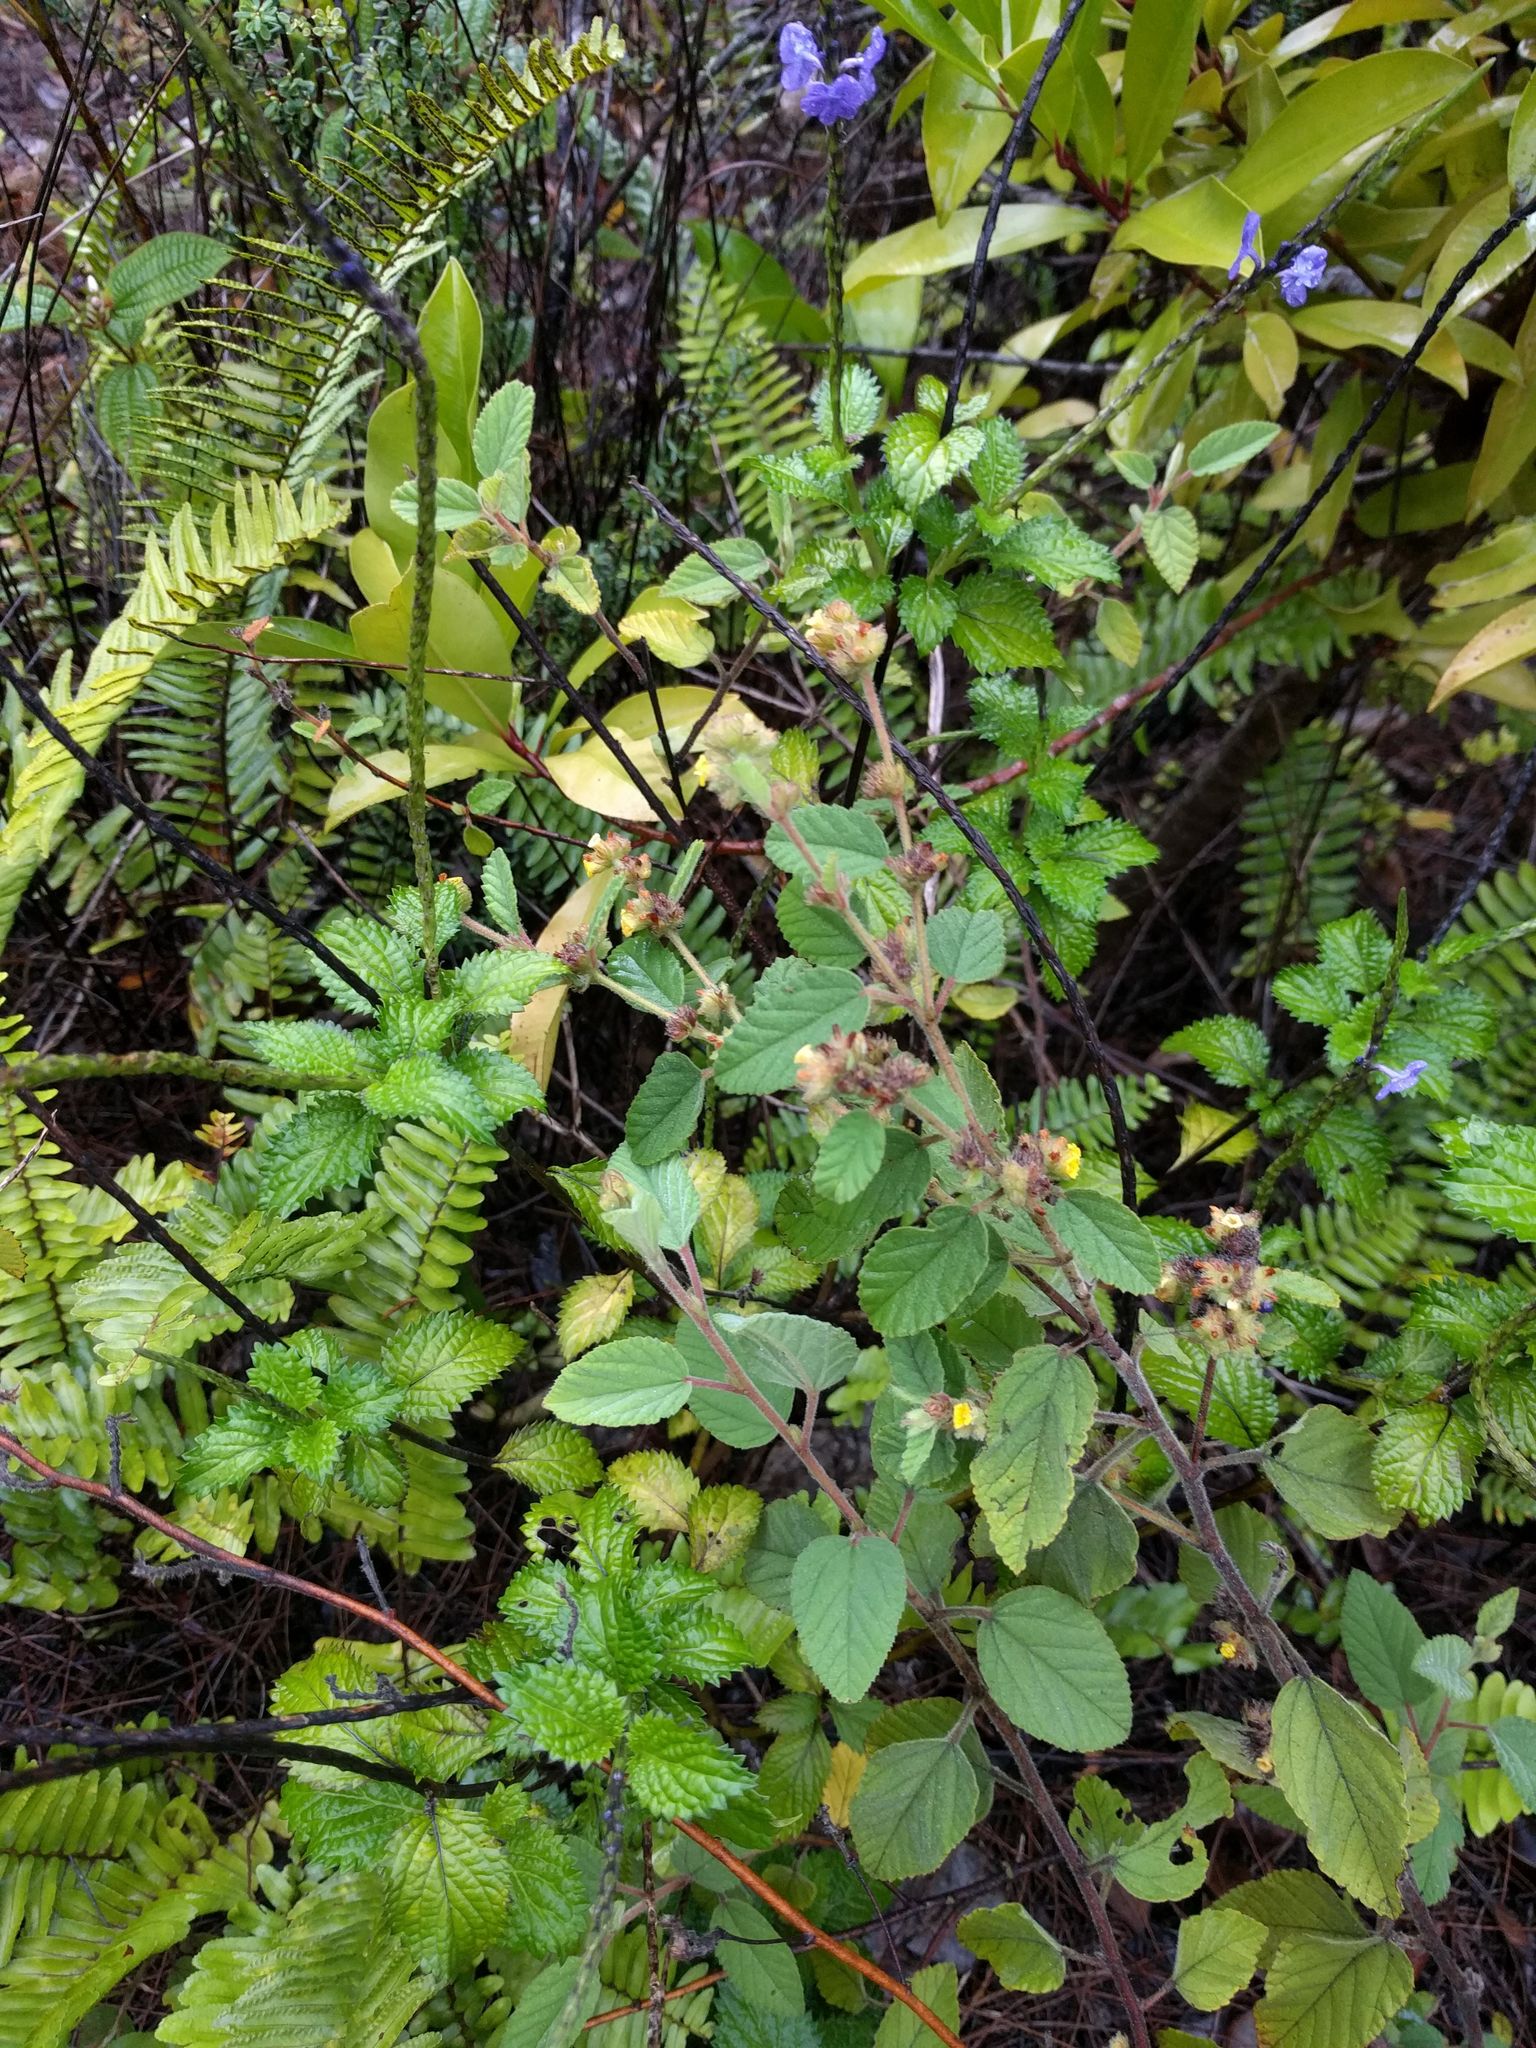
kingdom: Plantae
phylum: Tracheophyta
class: Magnoliopsida
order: Malvales
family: Malvaceae
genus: Waltheria
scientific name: Waltheria indica
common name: Leather-coat
